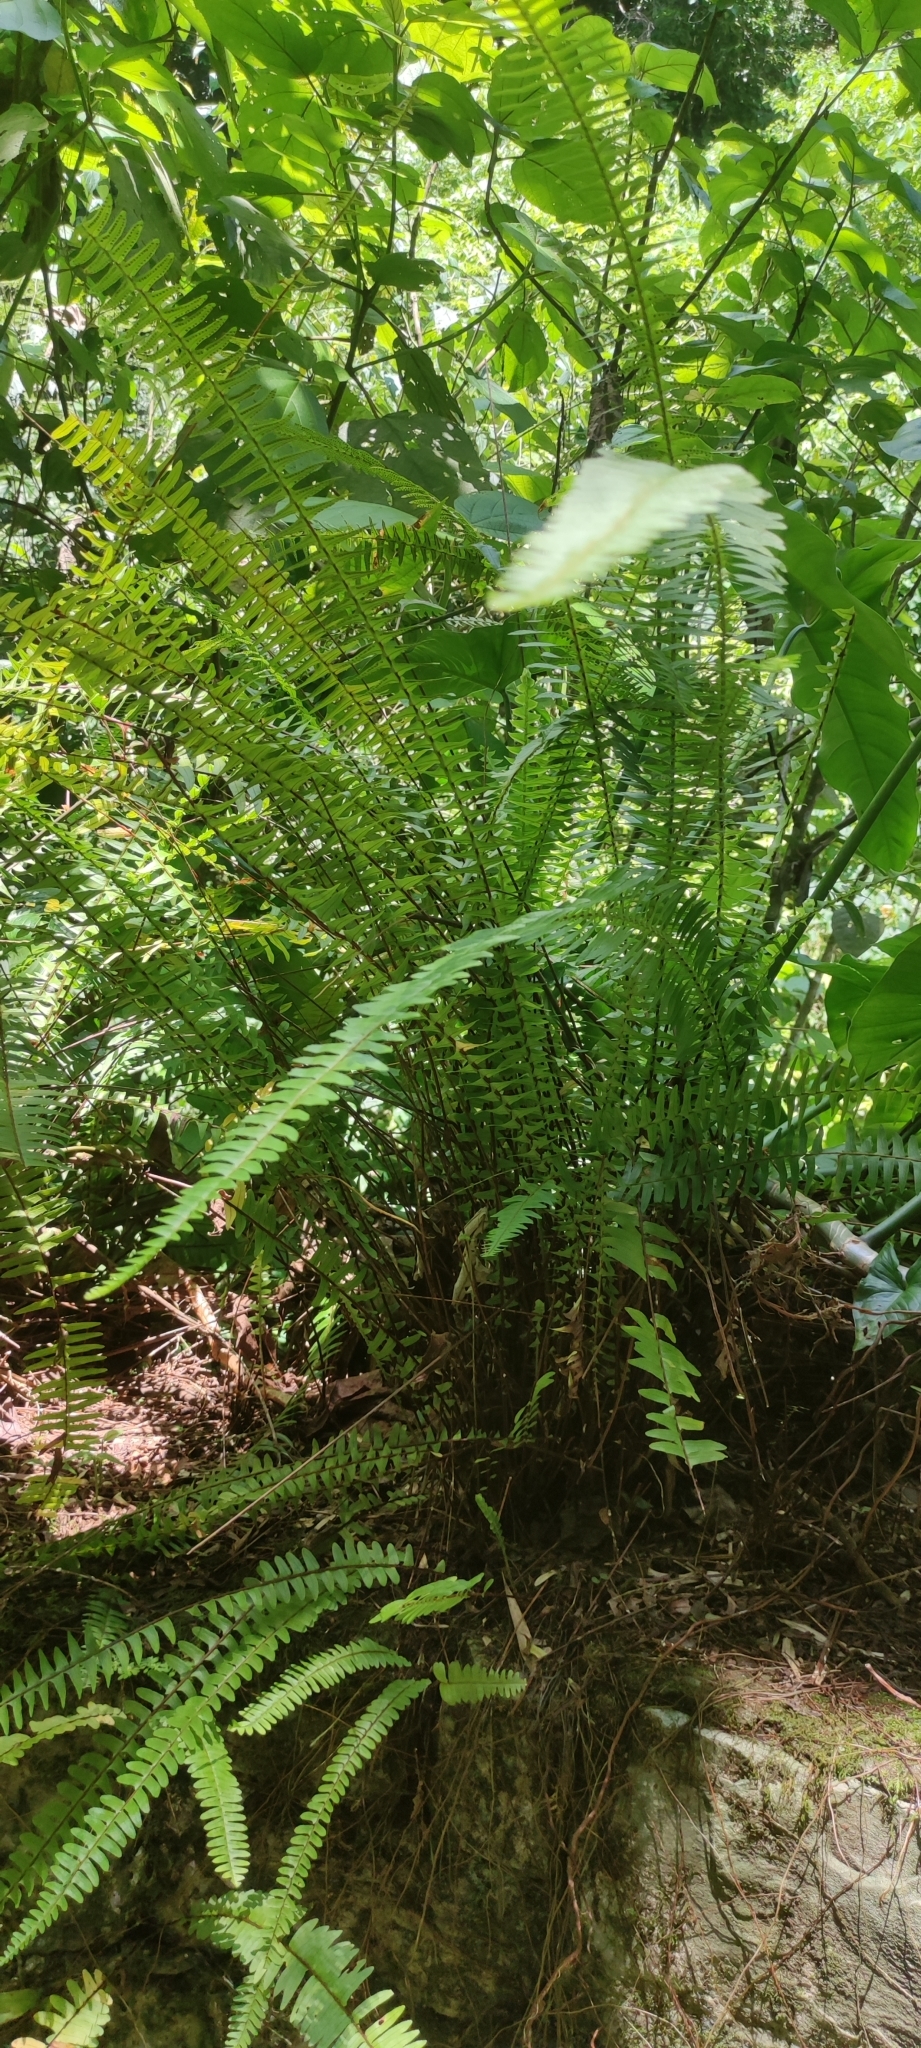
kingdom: Plantae
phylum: Tracheophyta
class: Polypodiopsida
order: Polypodiales
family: Nephrolepidaceae
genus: Nephrolepis
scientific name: Nephrolepis cordifolia
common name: Narrow swordfern
